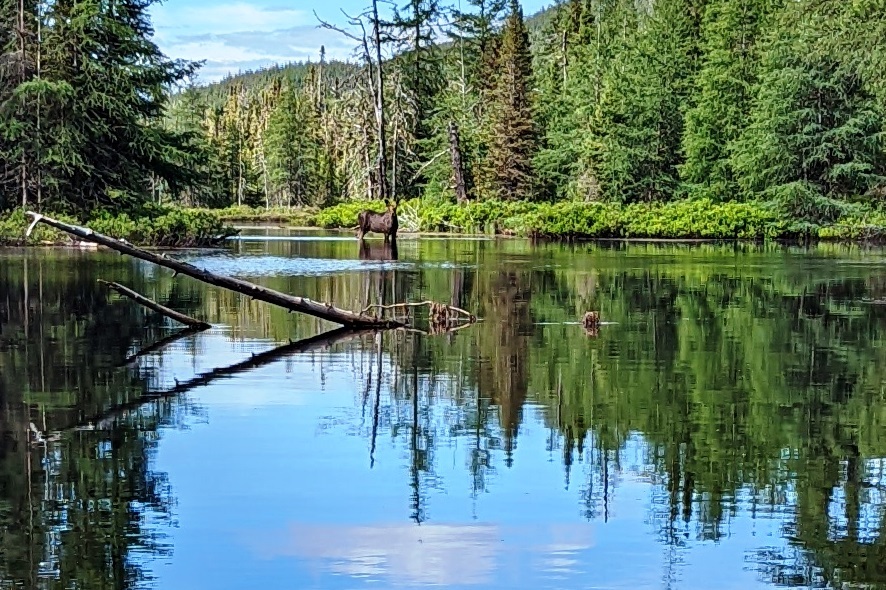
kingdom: Animalia
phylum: Chordata
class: Mammalia
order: Artiodactyla
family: Cervidae
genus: Alces
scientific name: Alces americanus
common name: Moose
